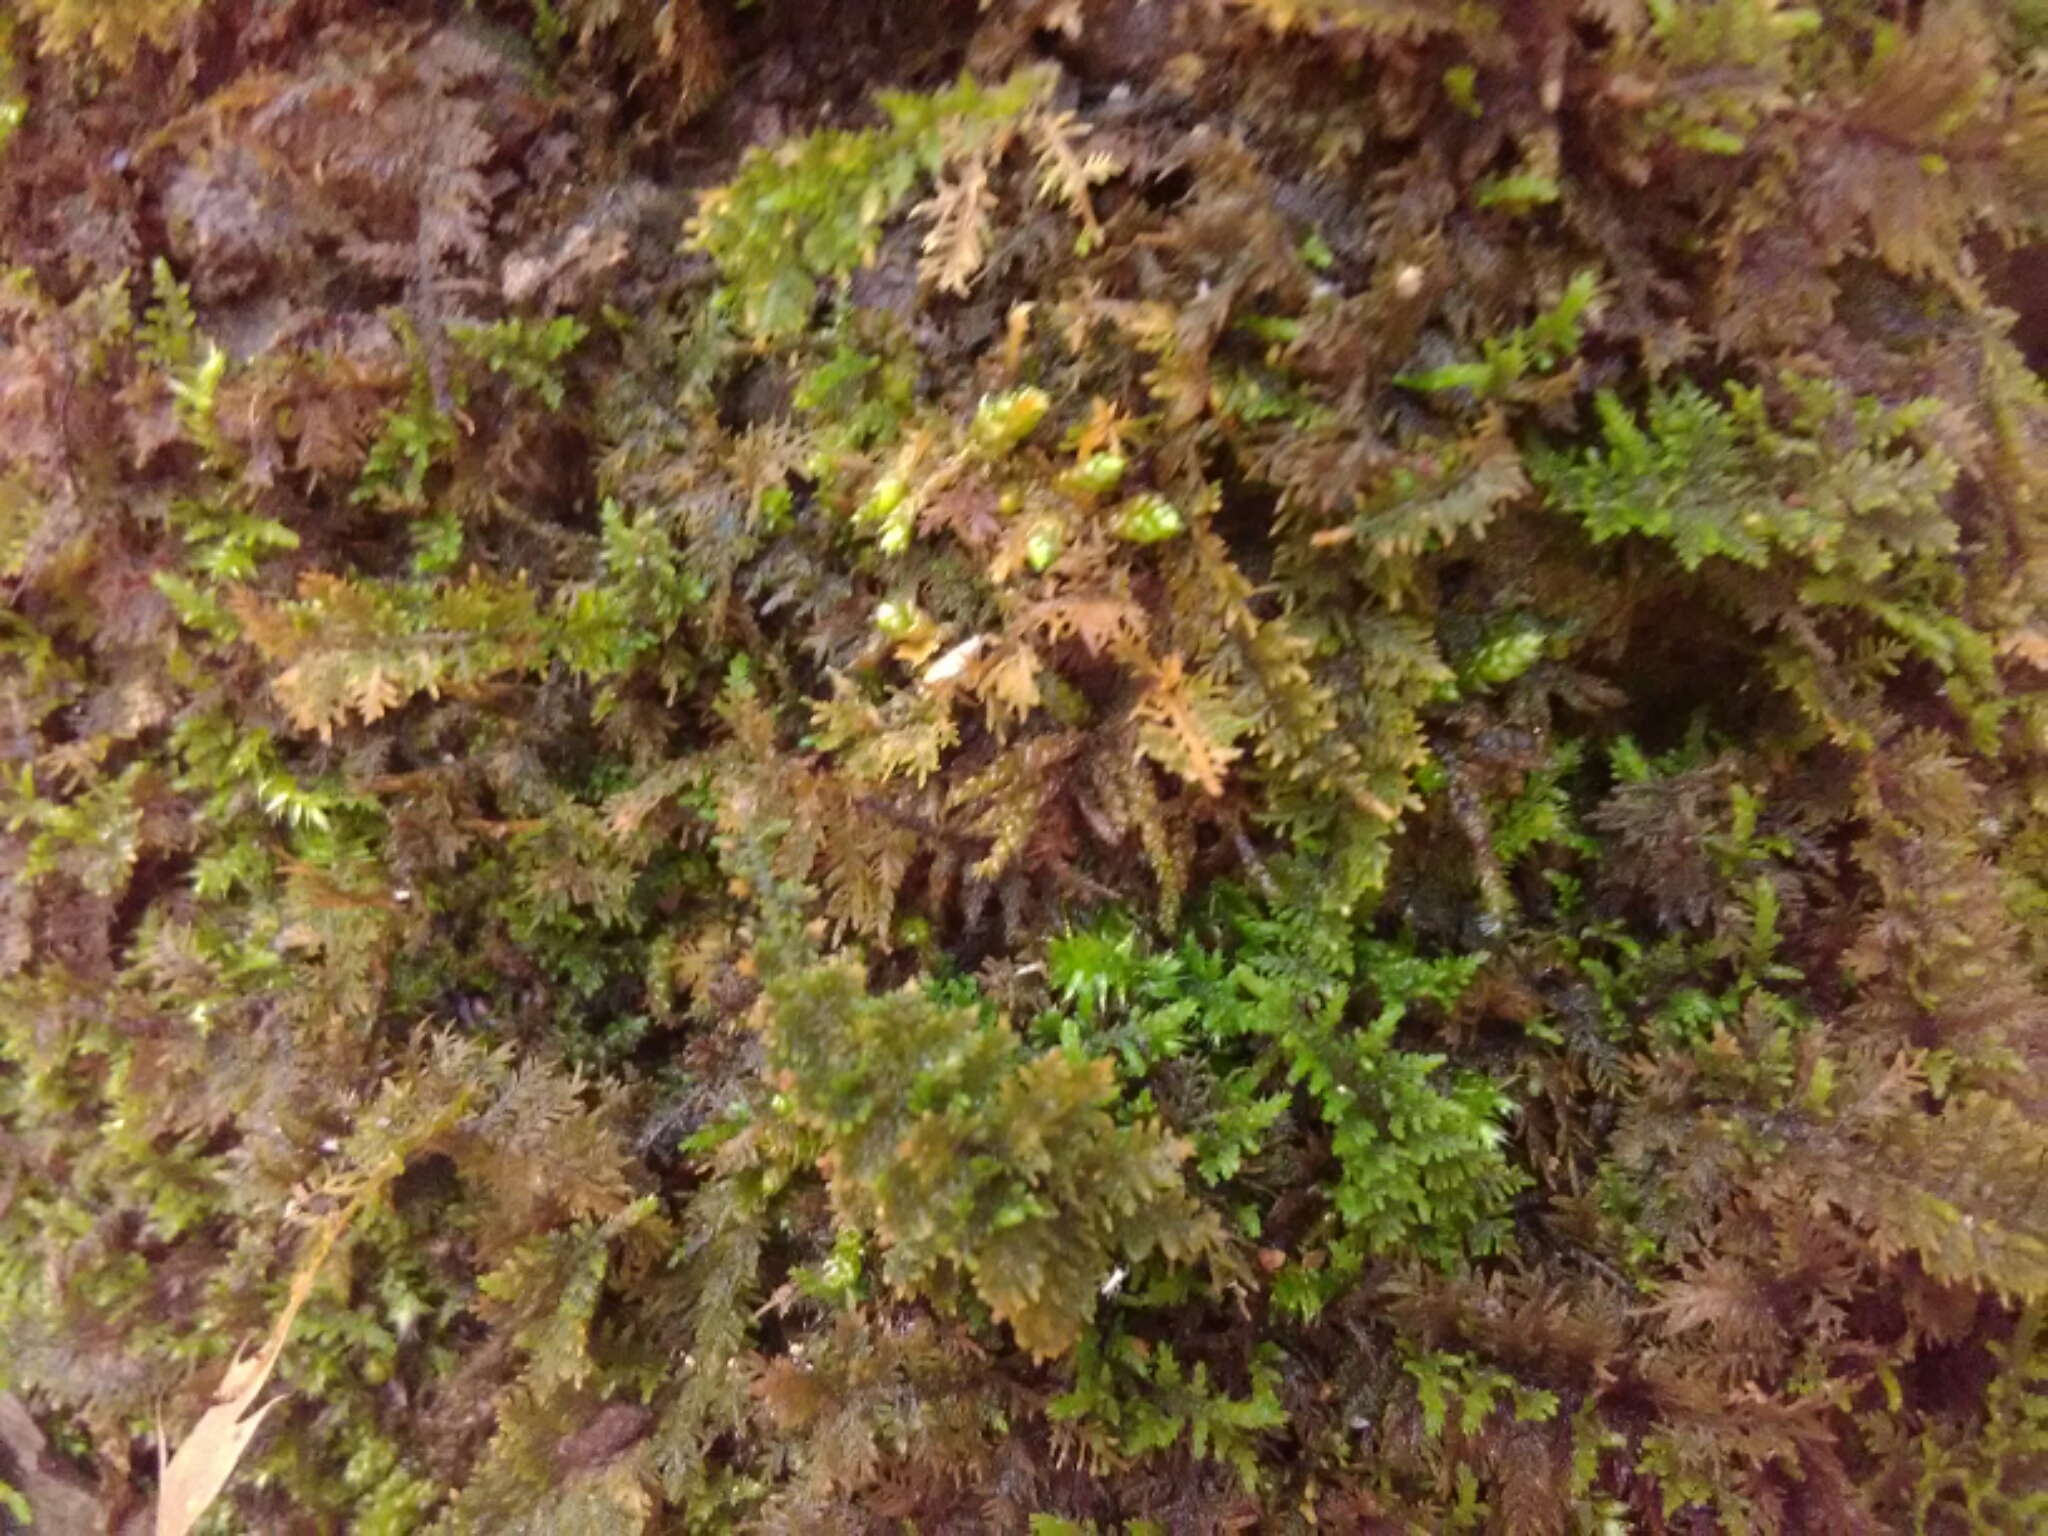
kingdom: Plantae
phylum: Bryophyta
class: Bryopsida
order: Hypnales
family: Thuidiaceae
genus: Thuidium
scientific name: Thuidium delicatulum
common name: Delicate fern moss
